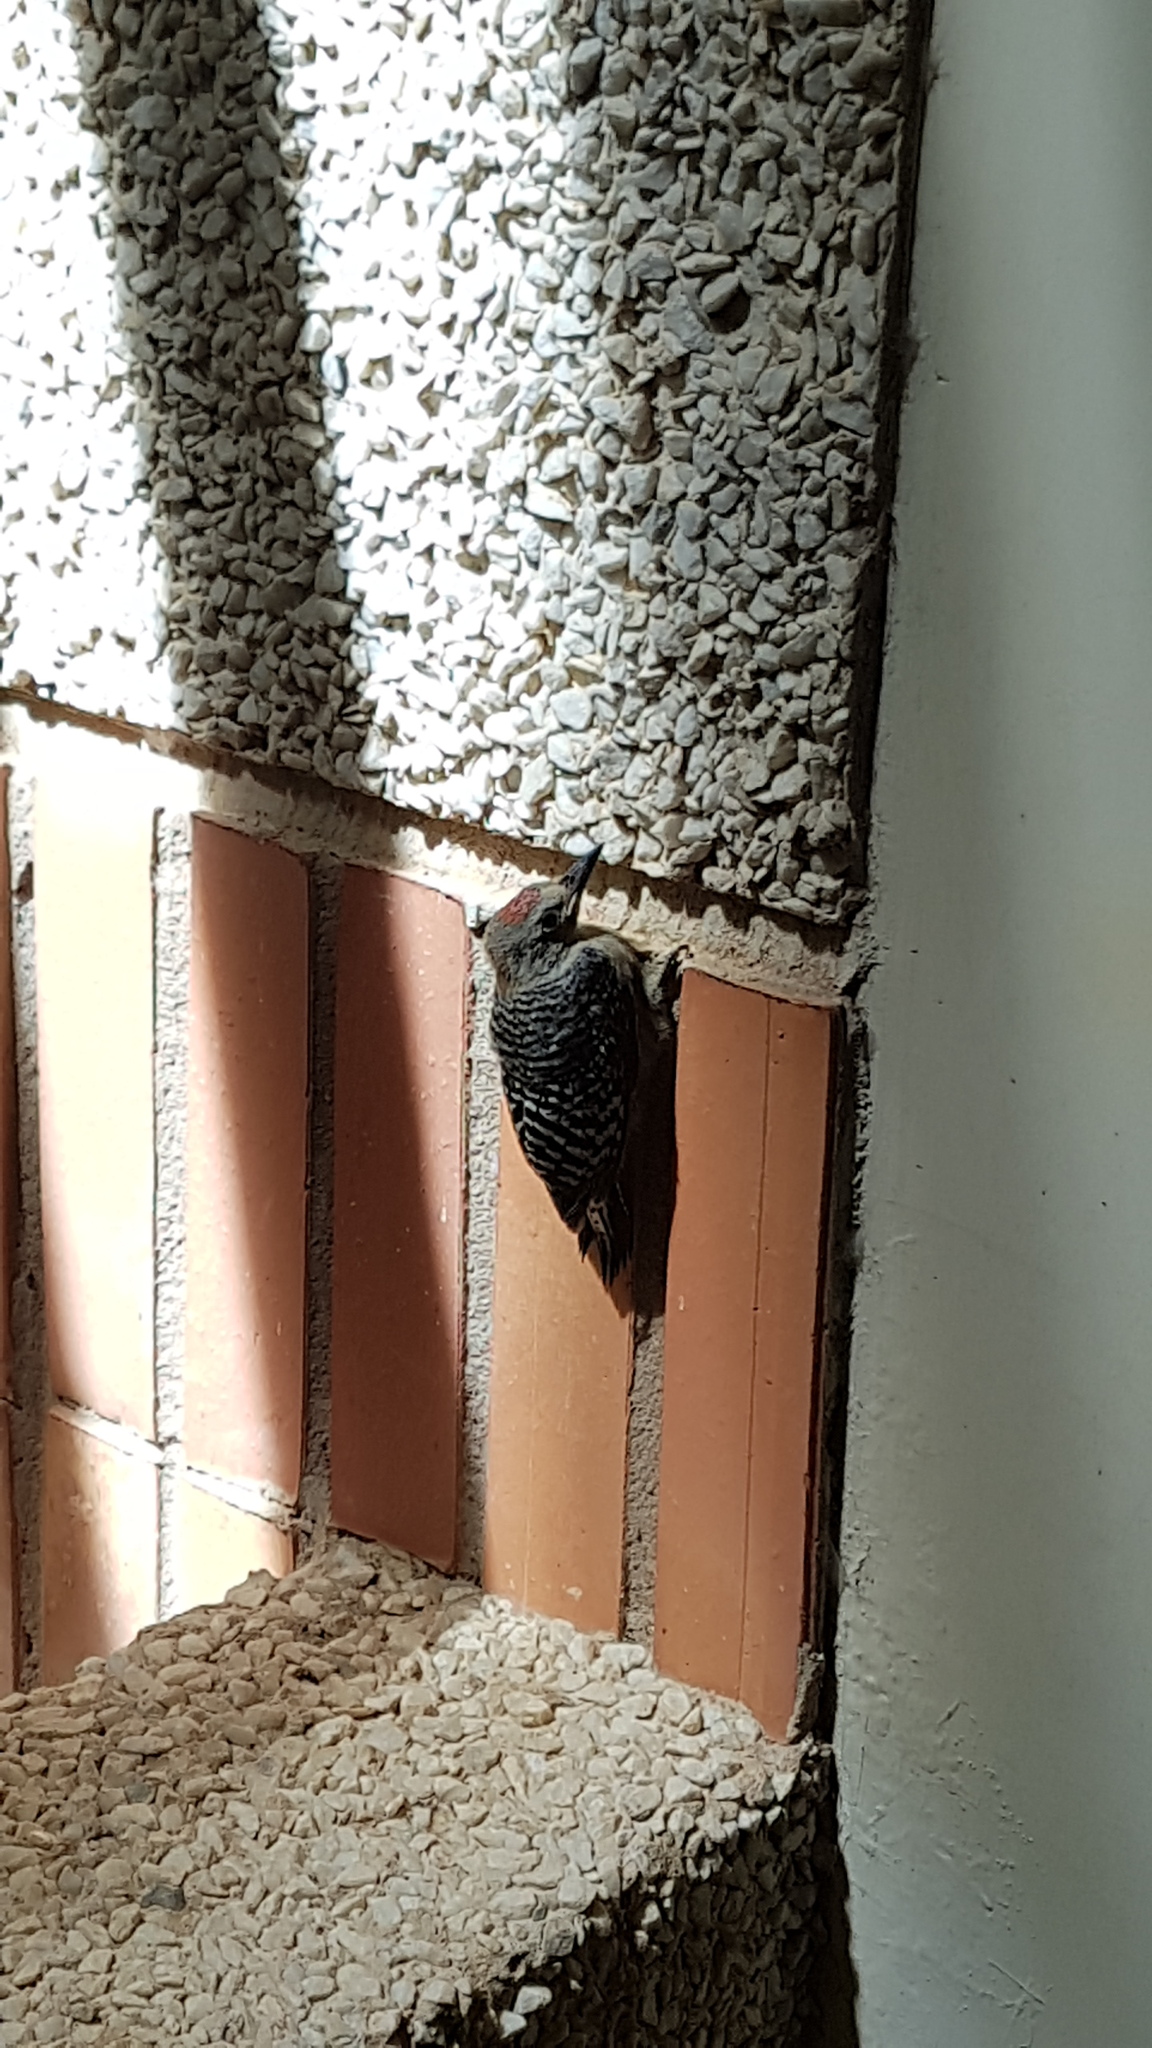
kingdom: Animalia
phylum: Chordata
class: Aves
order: Piciformes
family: Picidae
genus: Melanerpes
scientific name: Melanerpes rubricapillus
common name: Red-crowned woodpecker
